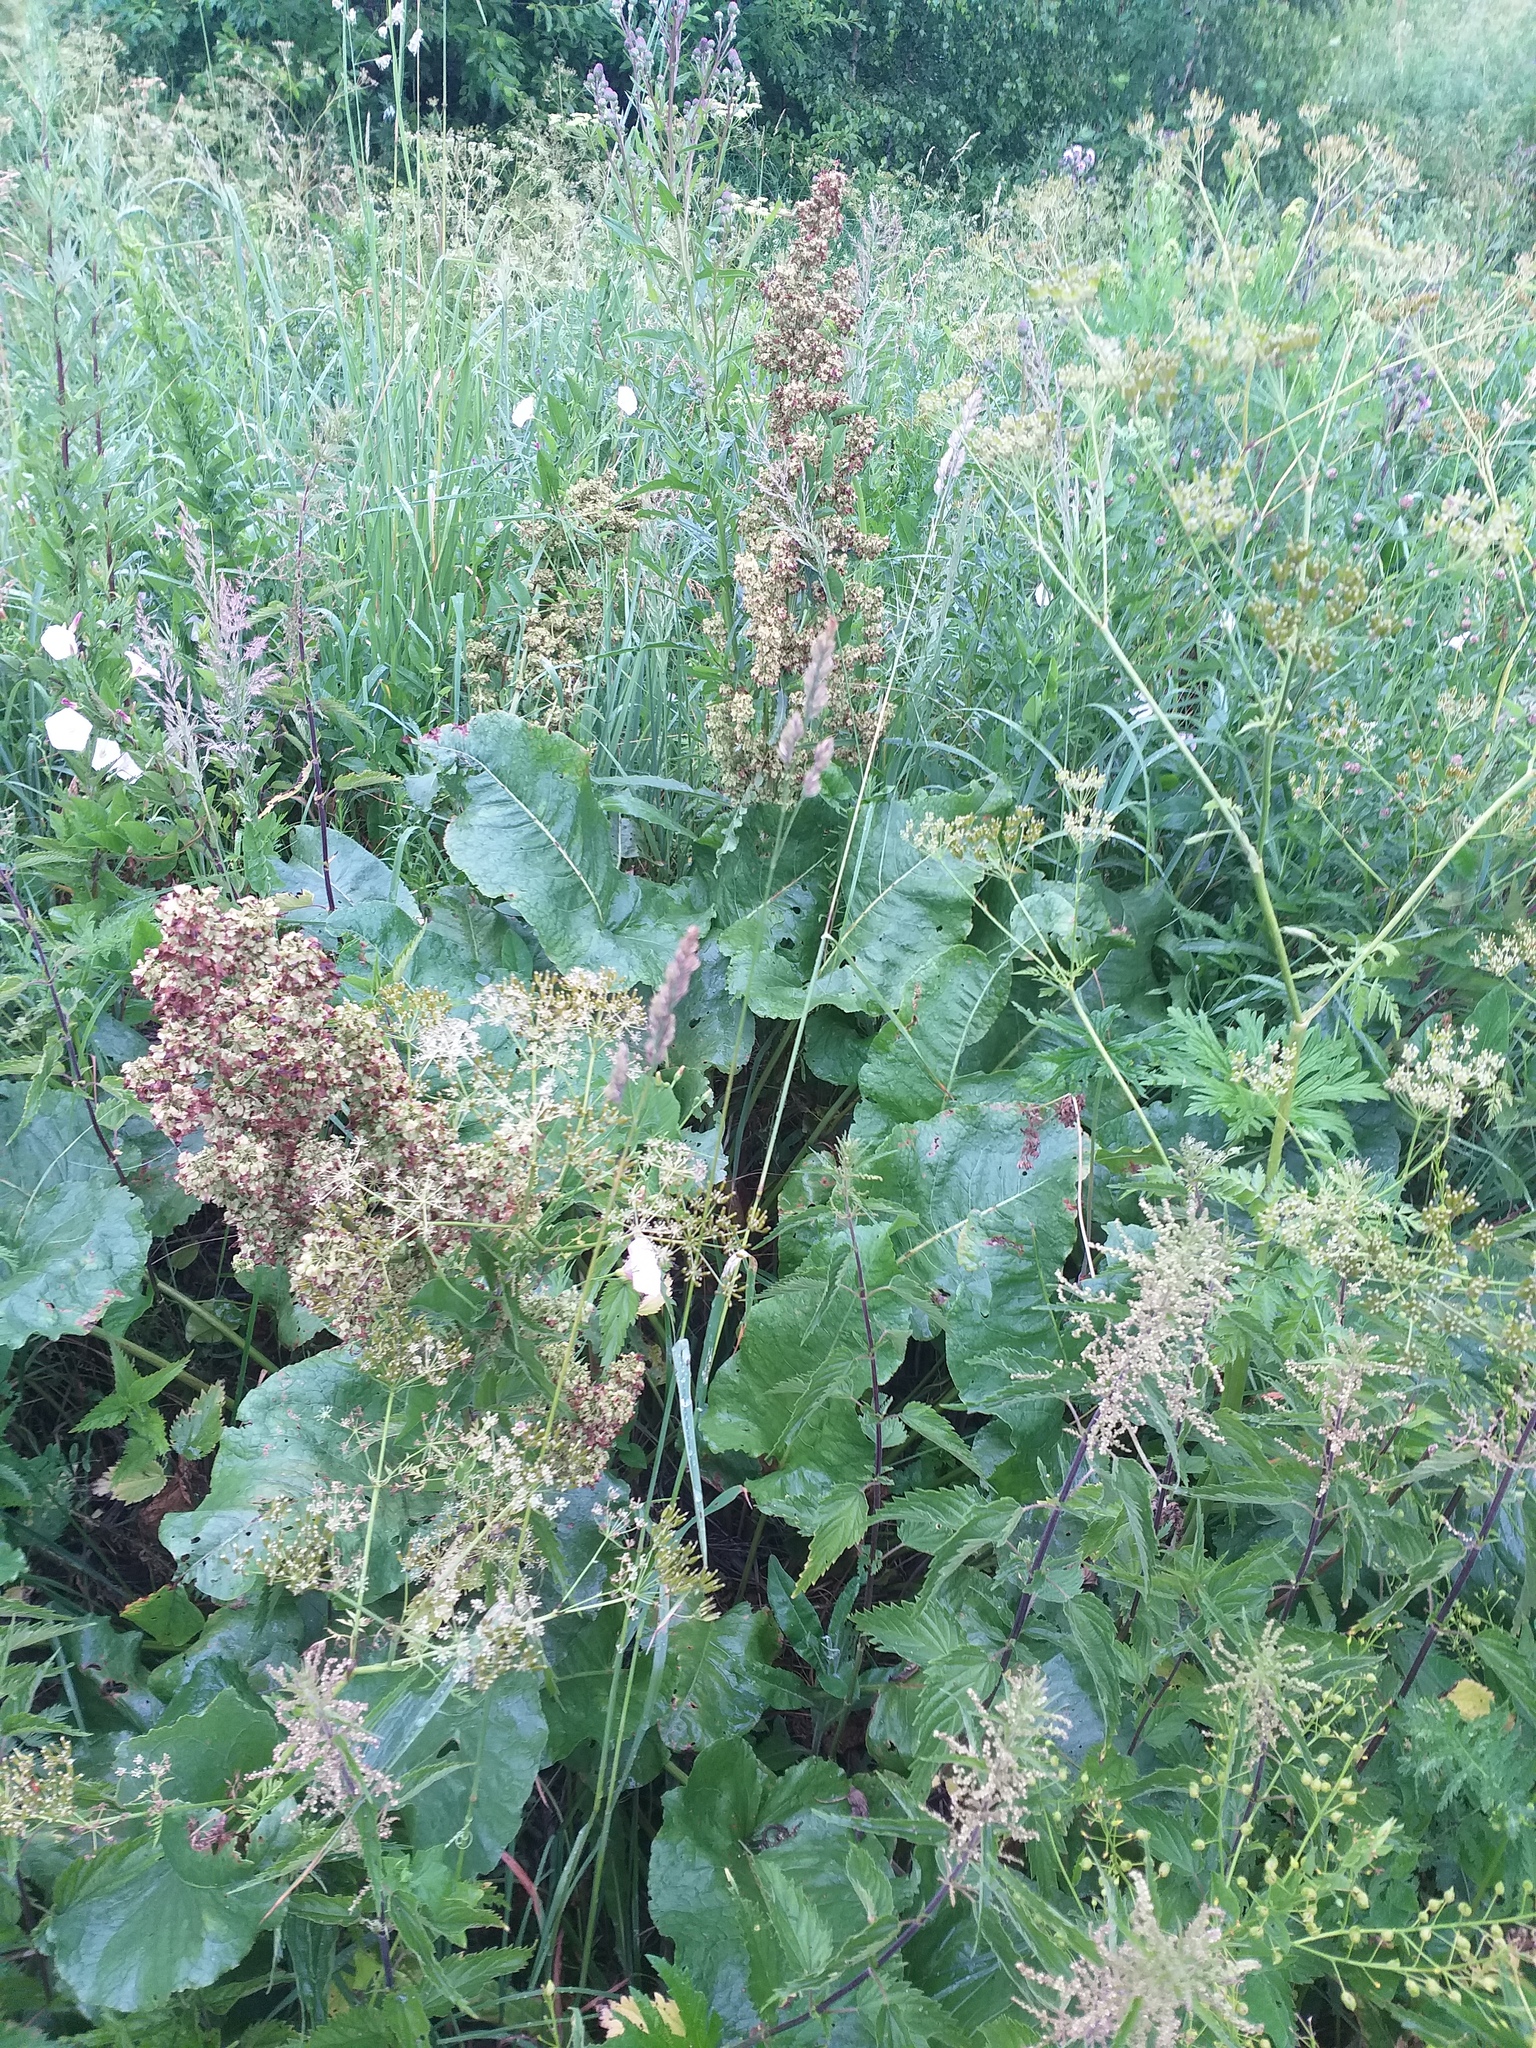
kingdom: Plantae
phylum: Tracheophyta
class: Magnoliopsida
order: Caryophyllales
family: Polygonaceae
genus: Rumex
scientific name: Rumex confertus
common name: Russian dock
